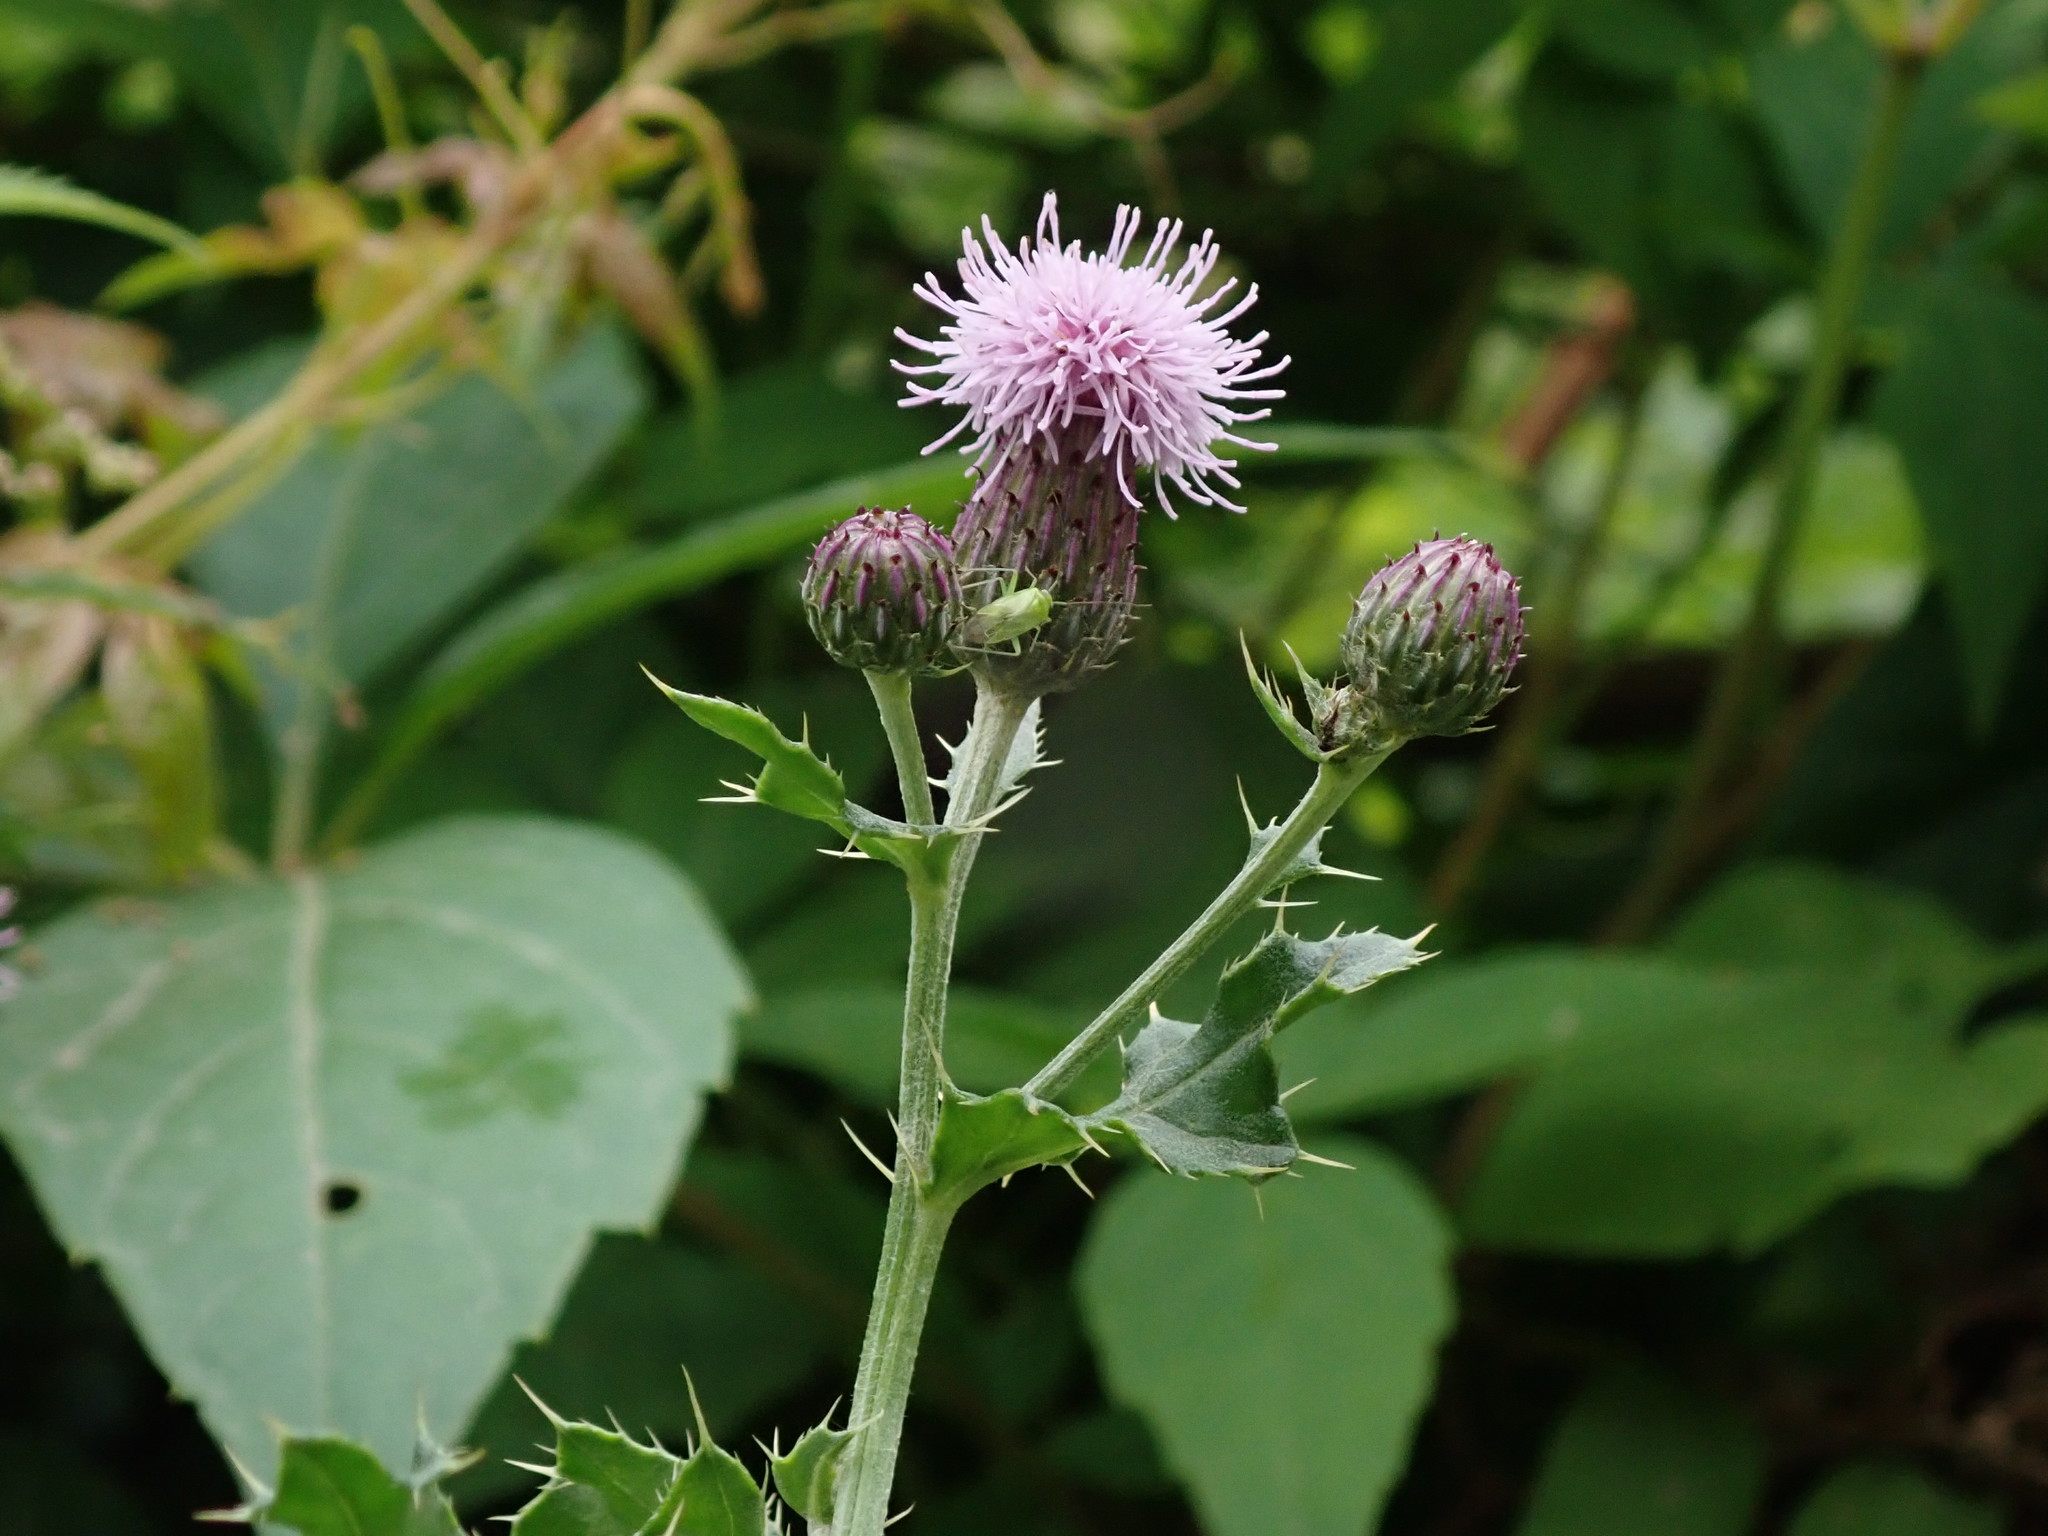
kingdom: Plantae
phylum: Tracheophyta
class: Magnoliopsida
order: Asterales
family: Asteraceae
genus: Cirsium
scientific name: Cirsium arvense
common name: Creeping thistle
